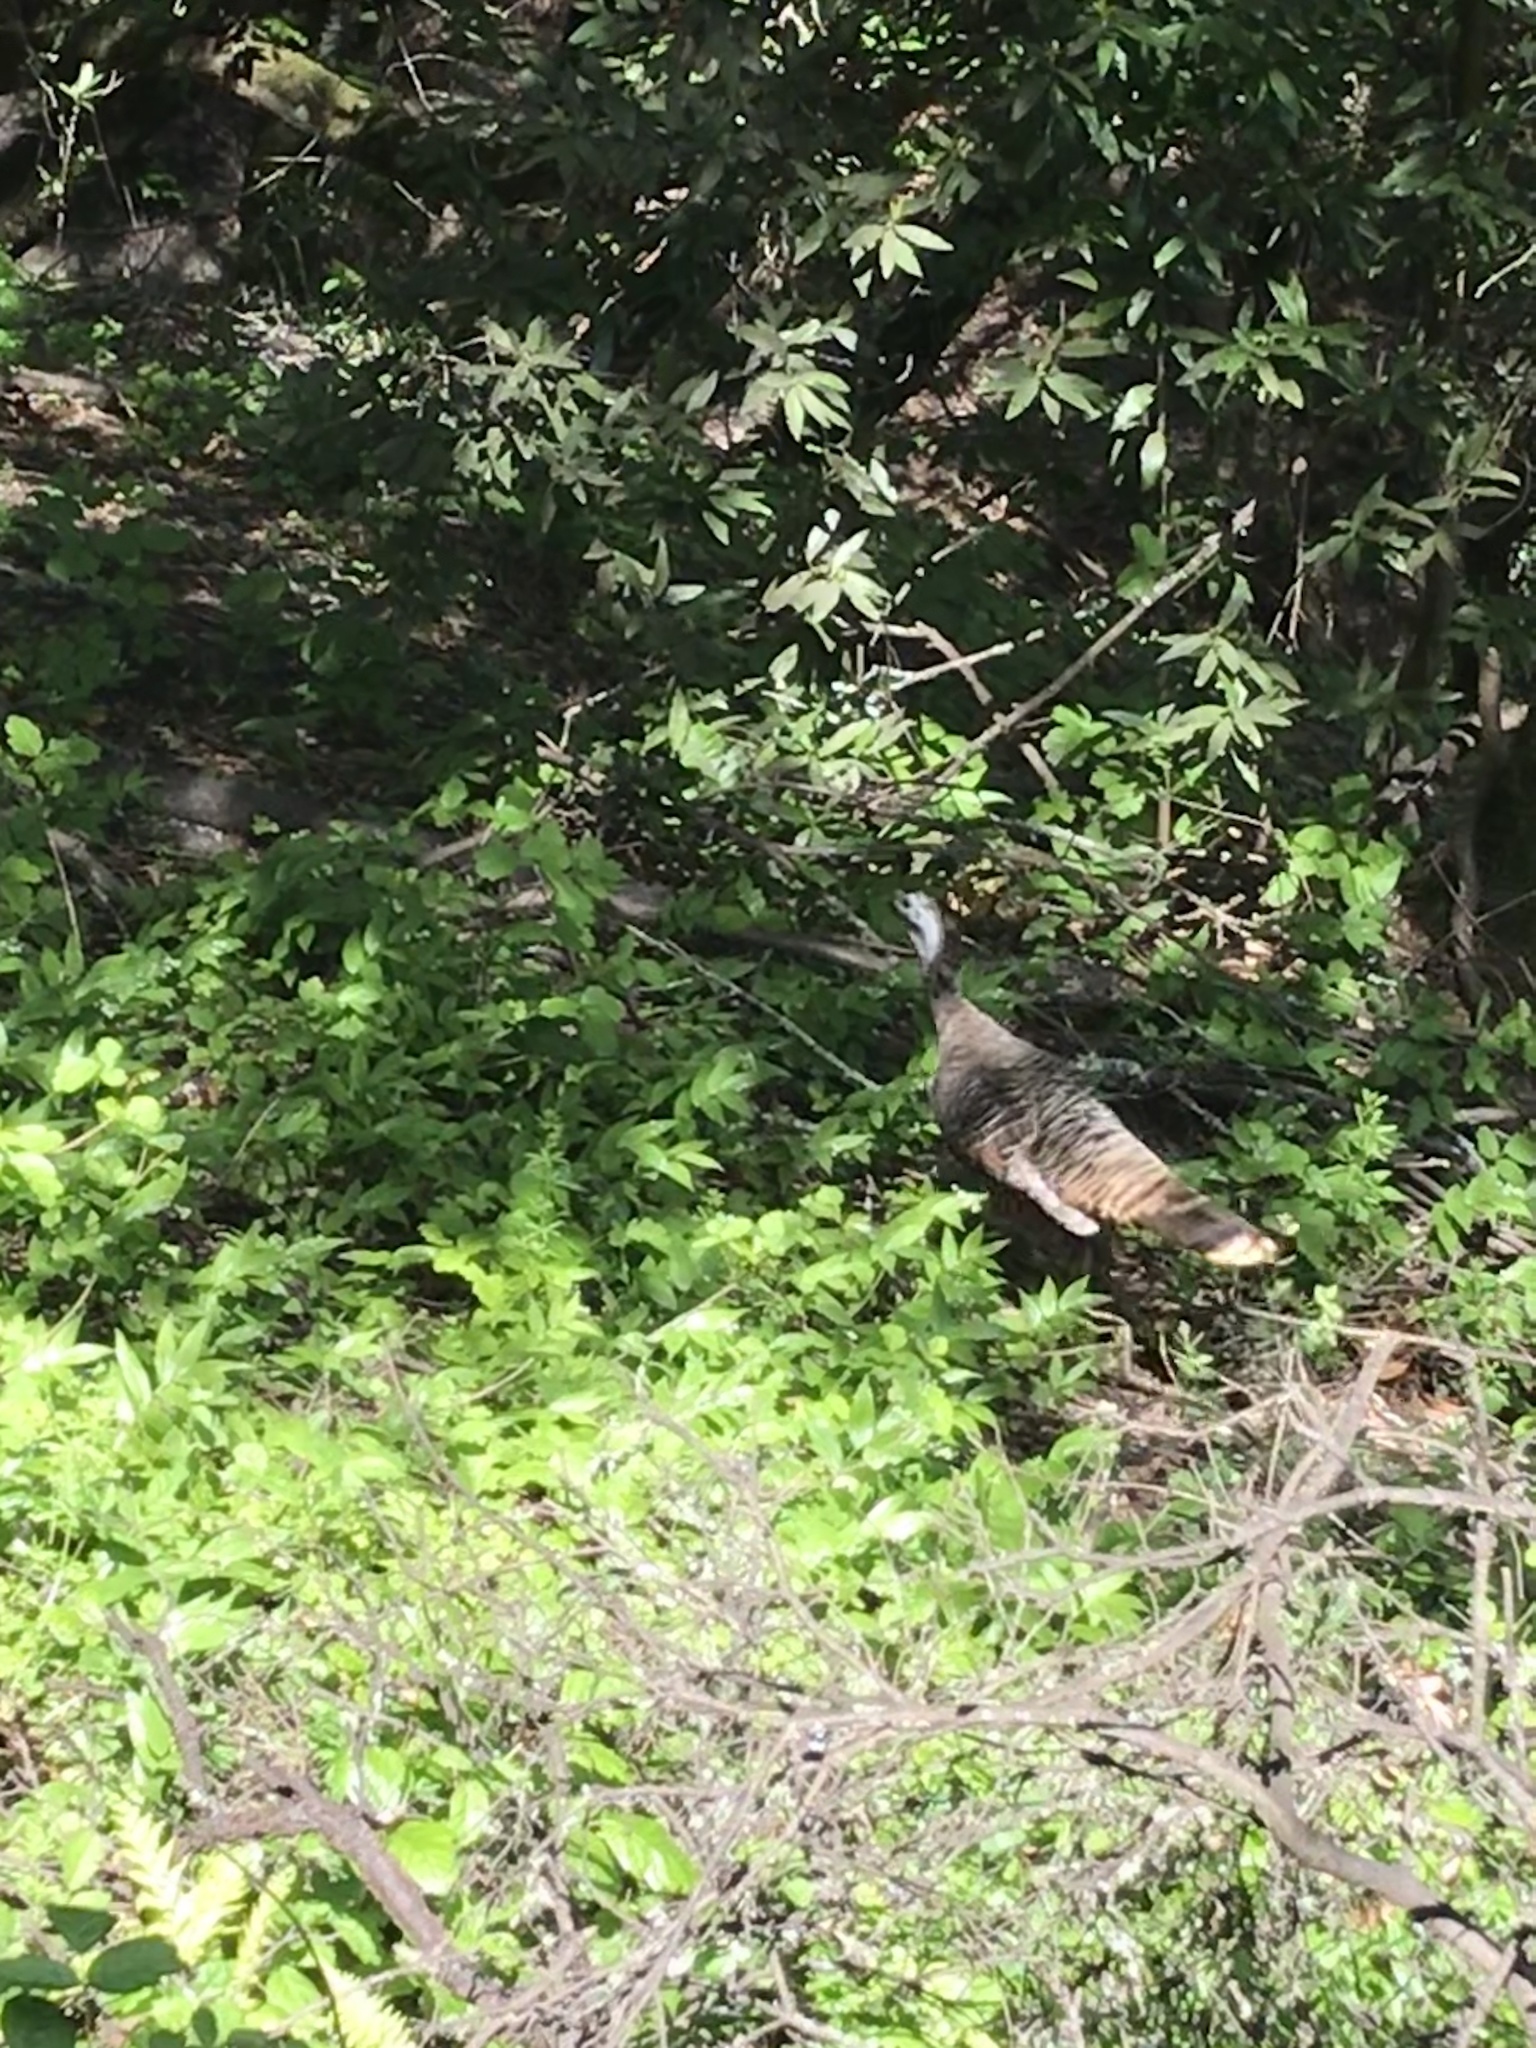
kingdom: Animalia
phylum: Chordata
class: Aves
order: Galliformes
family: Phasianidae
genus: Meleagris
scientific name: Meleagris gallopavo
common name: Wild turkey
